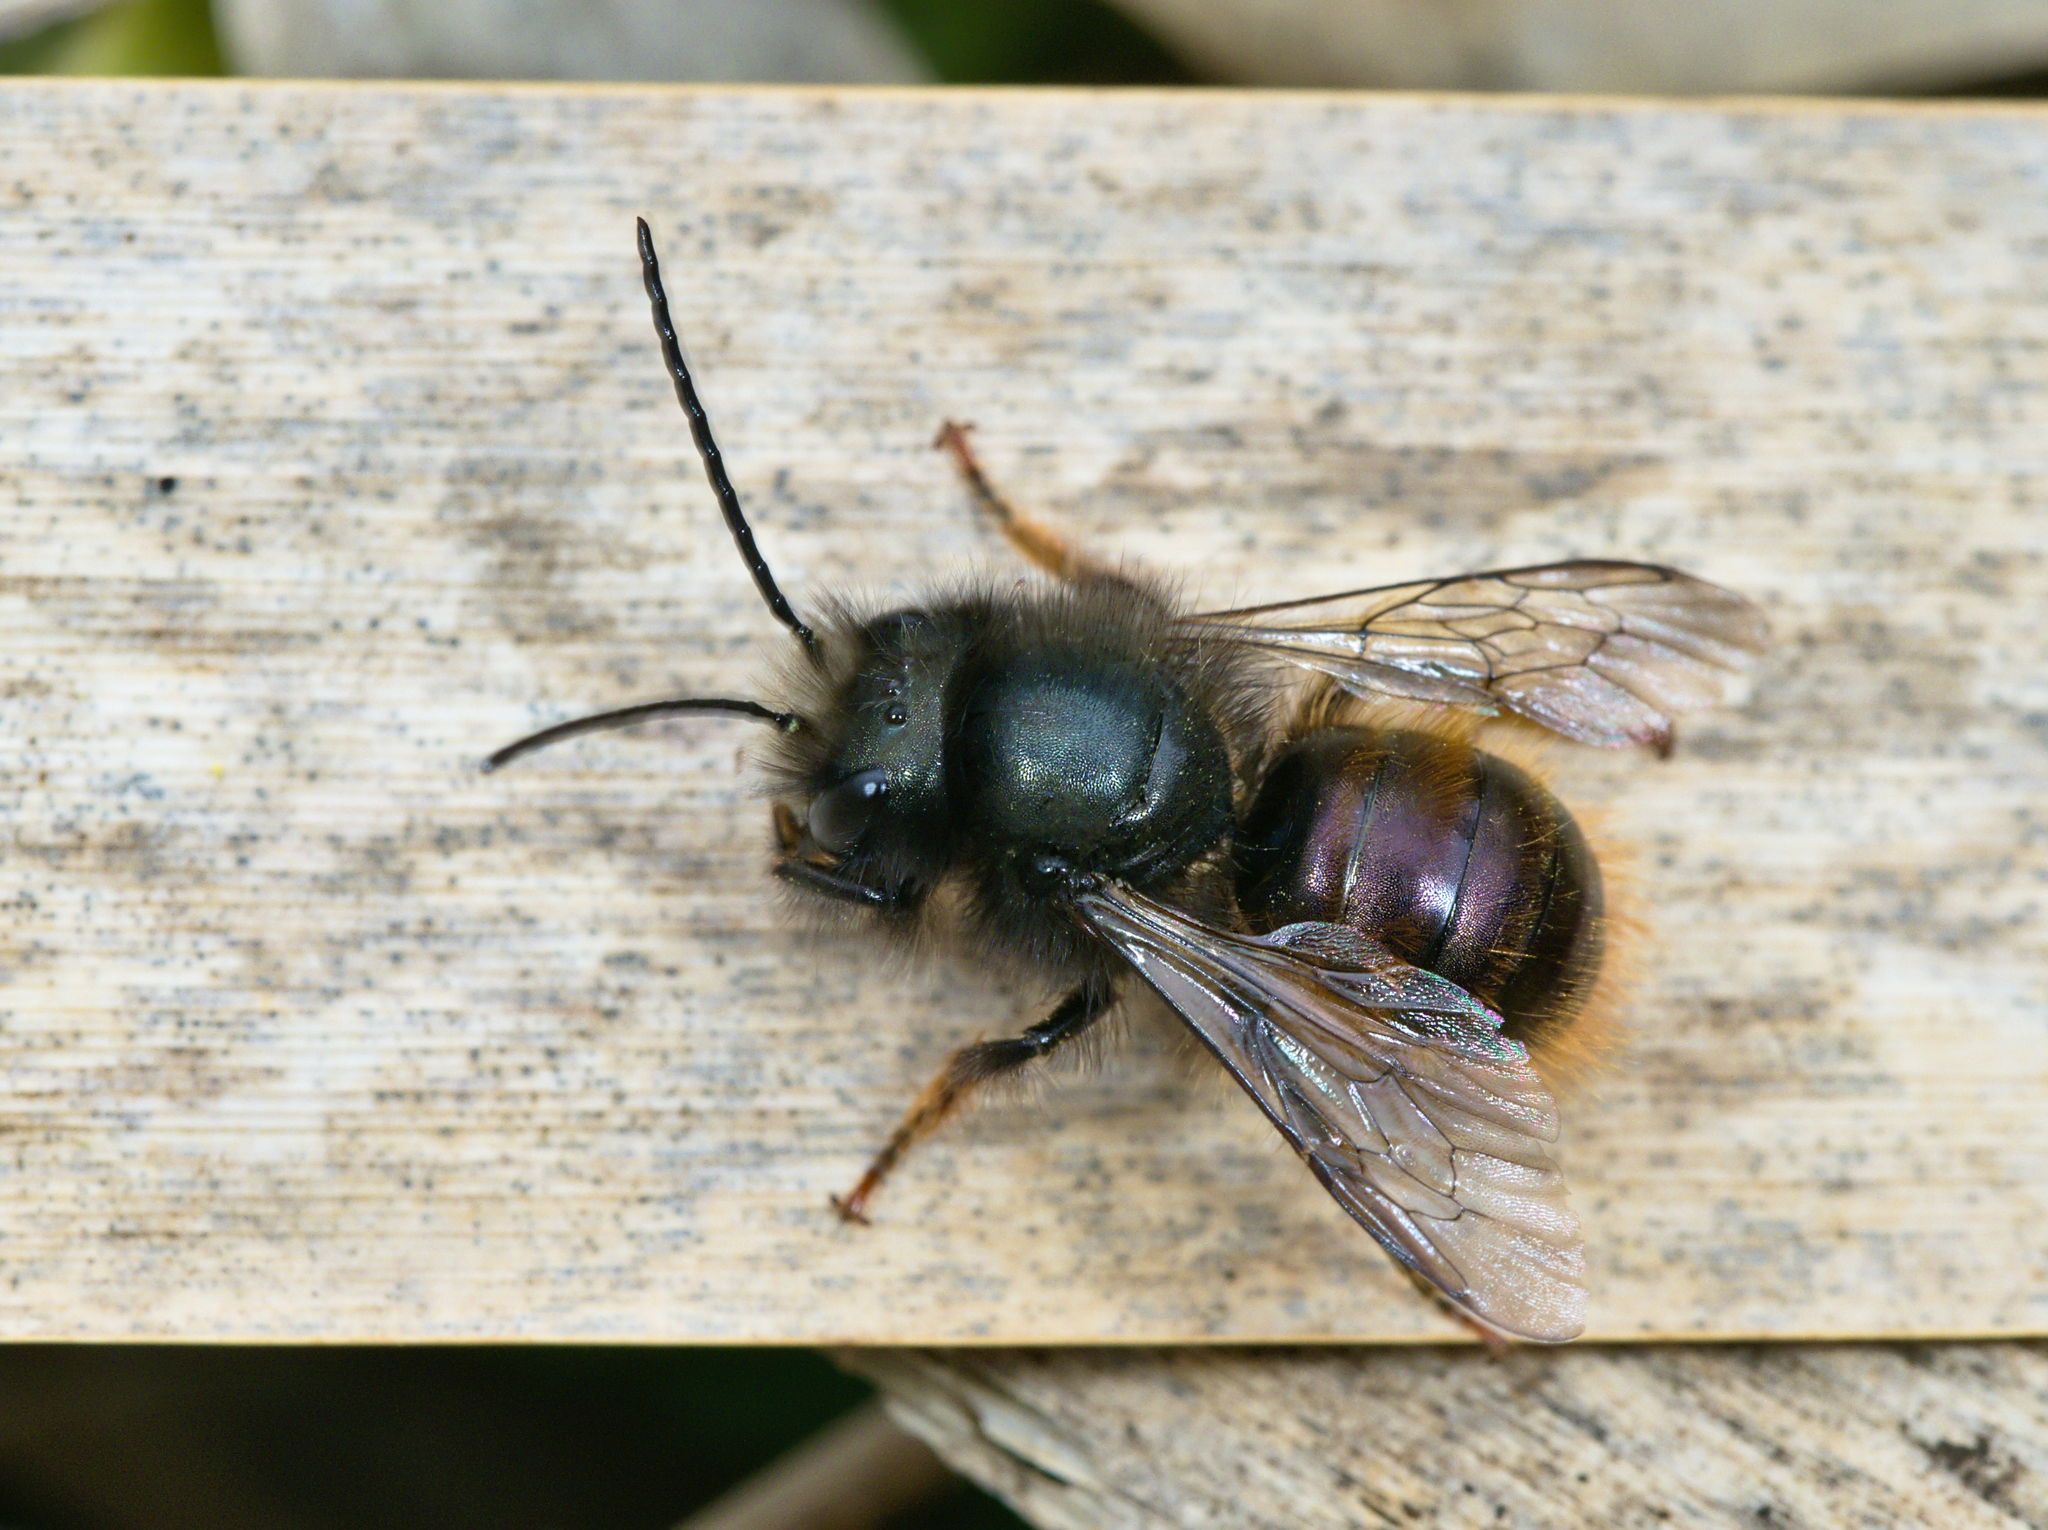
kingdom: Animalia
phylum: Arthropoda
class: Insecta
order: Hymenoptera
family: Megachilidae
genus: Osmia
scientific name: Osmia cornuta
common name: Mason bee
